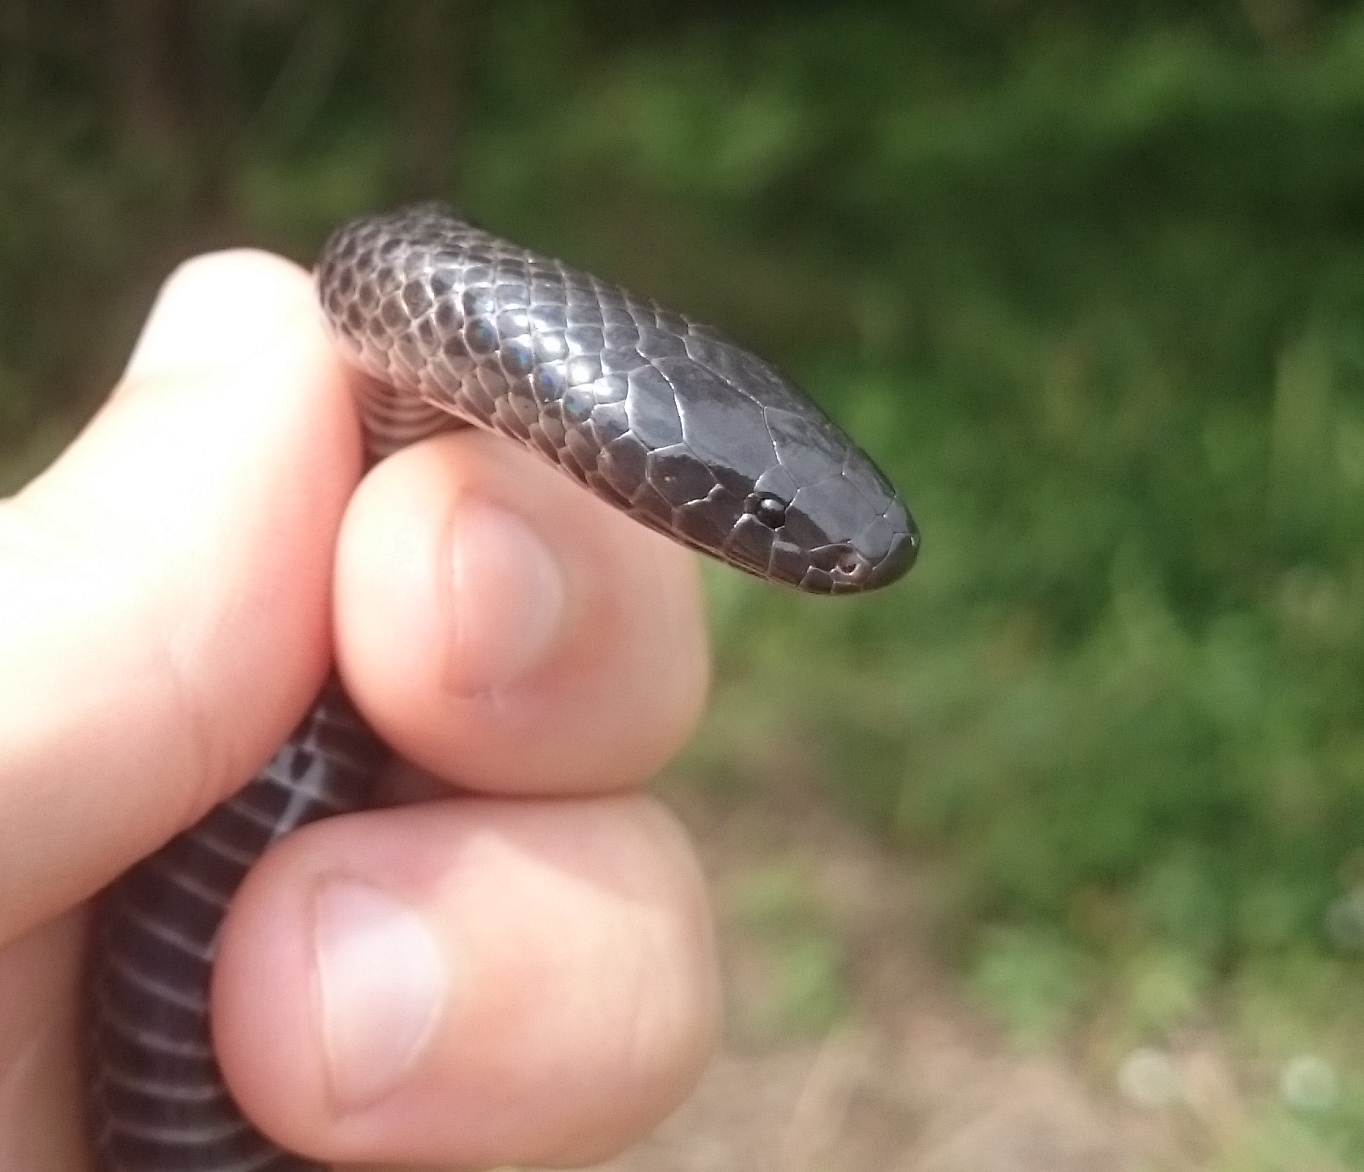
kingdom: Animalia
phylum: Chordata
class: Squamata
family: Atractaspididae
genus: Amblyodipsas
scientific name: Amblyodipsas concolor
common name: Kwazulu-natal purple-glossed snake
